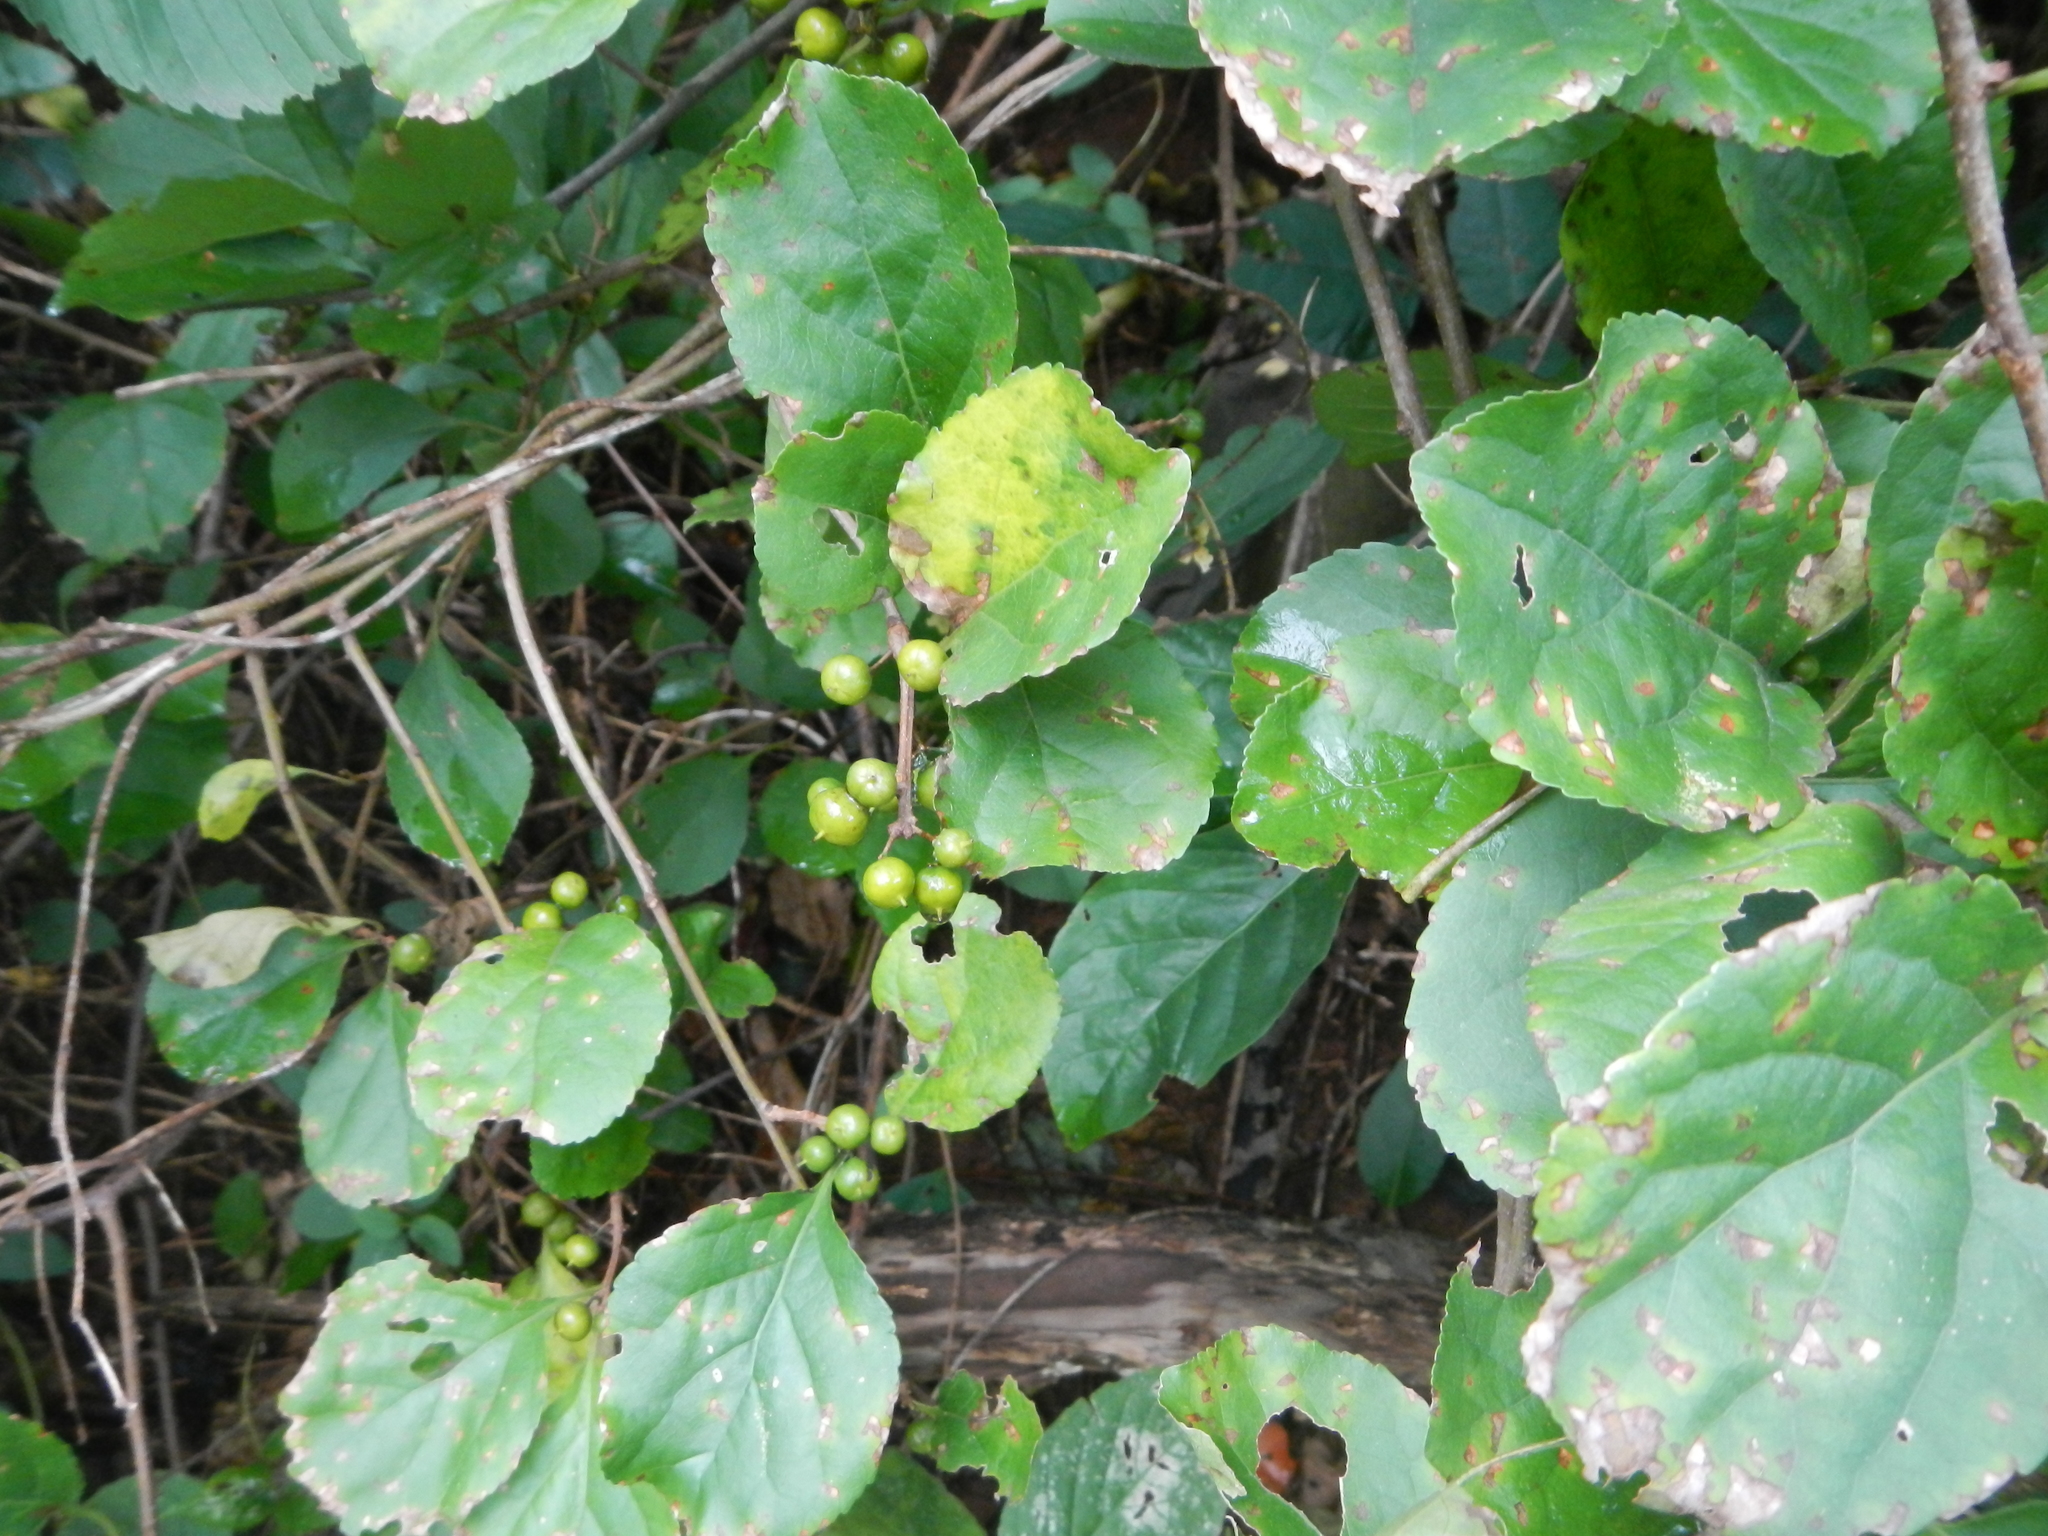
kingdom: Plantae
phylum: Tracheophyta
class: Magnoliopsida
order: Celastrales
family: Celastraceae
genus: Celastrus
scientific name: Celastrus orbiculatus
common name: Oriental bittersweet
